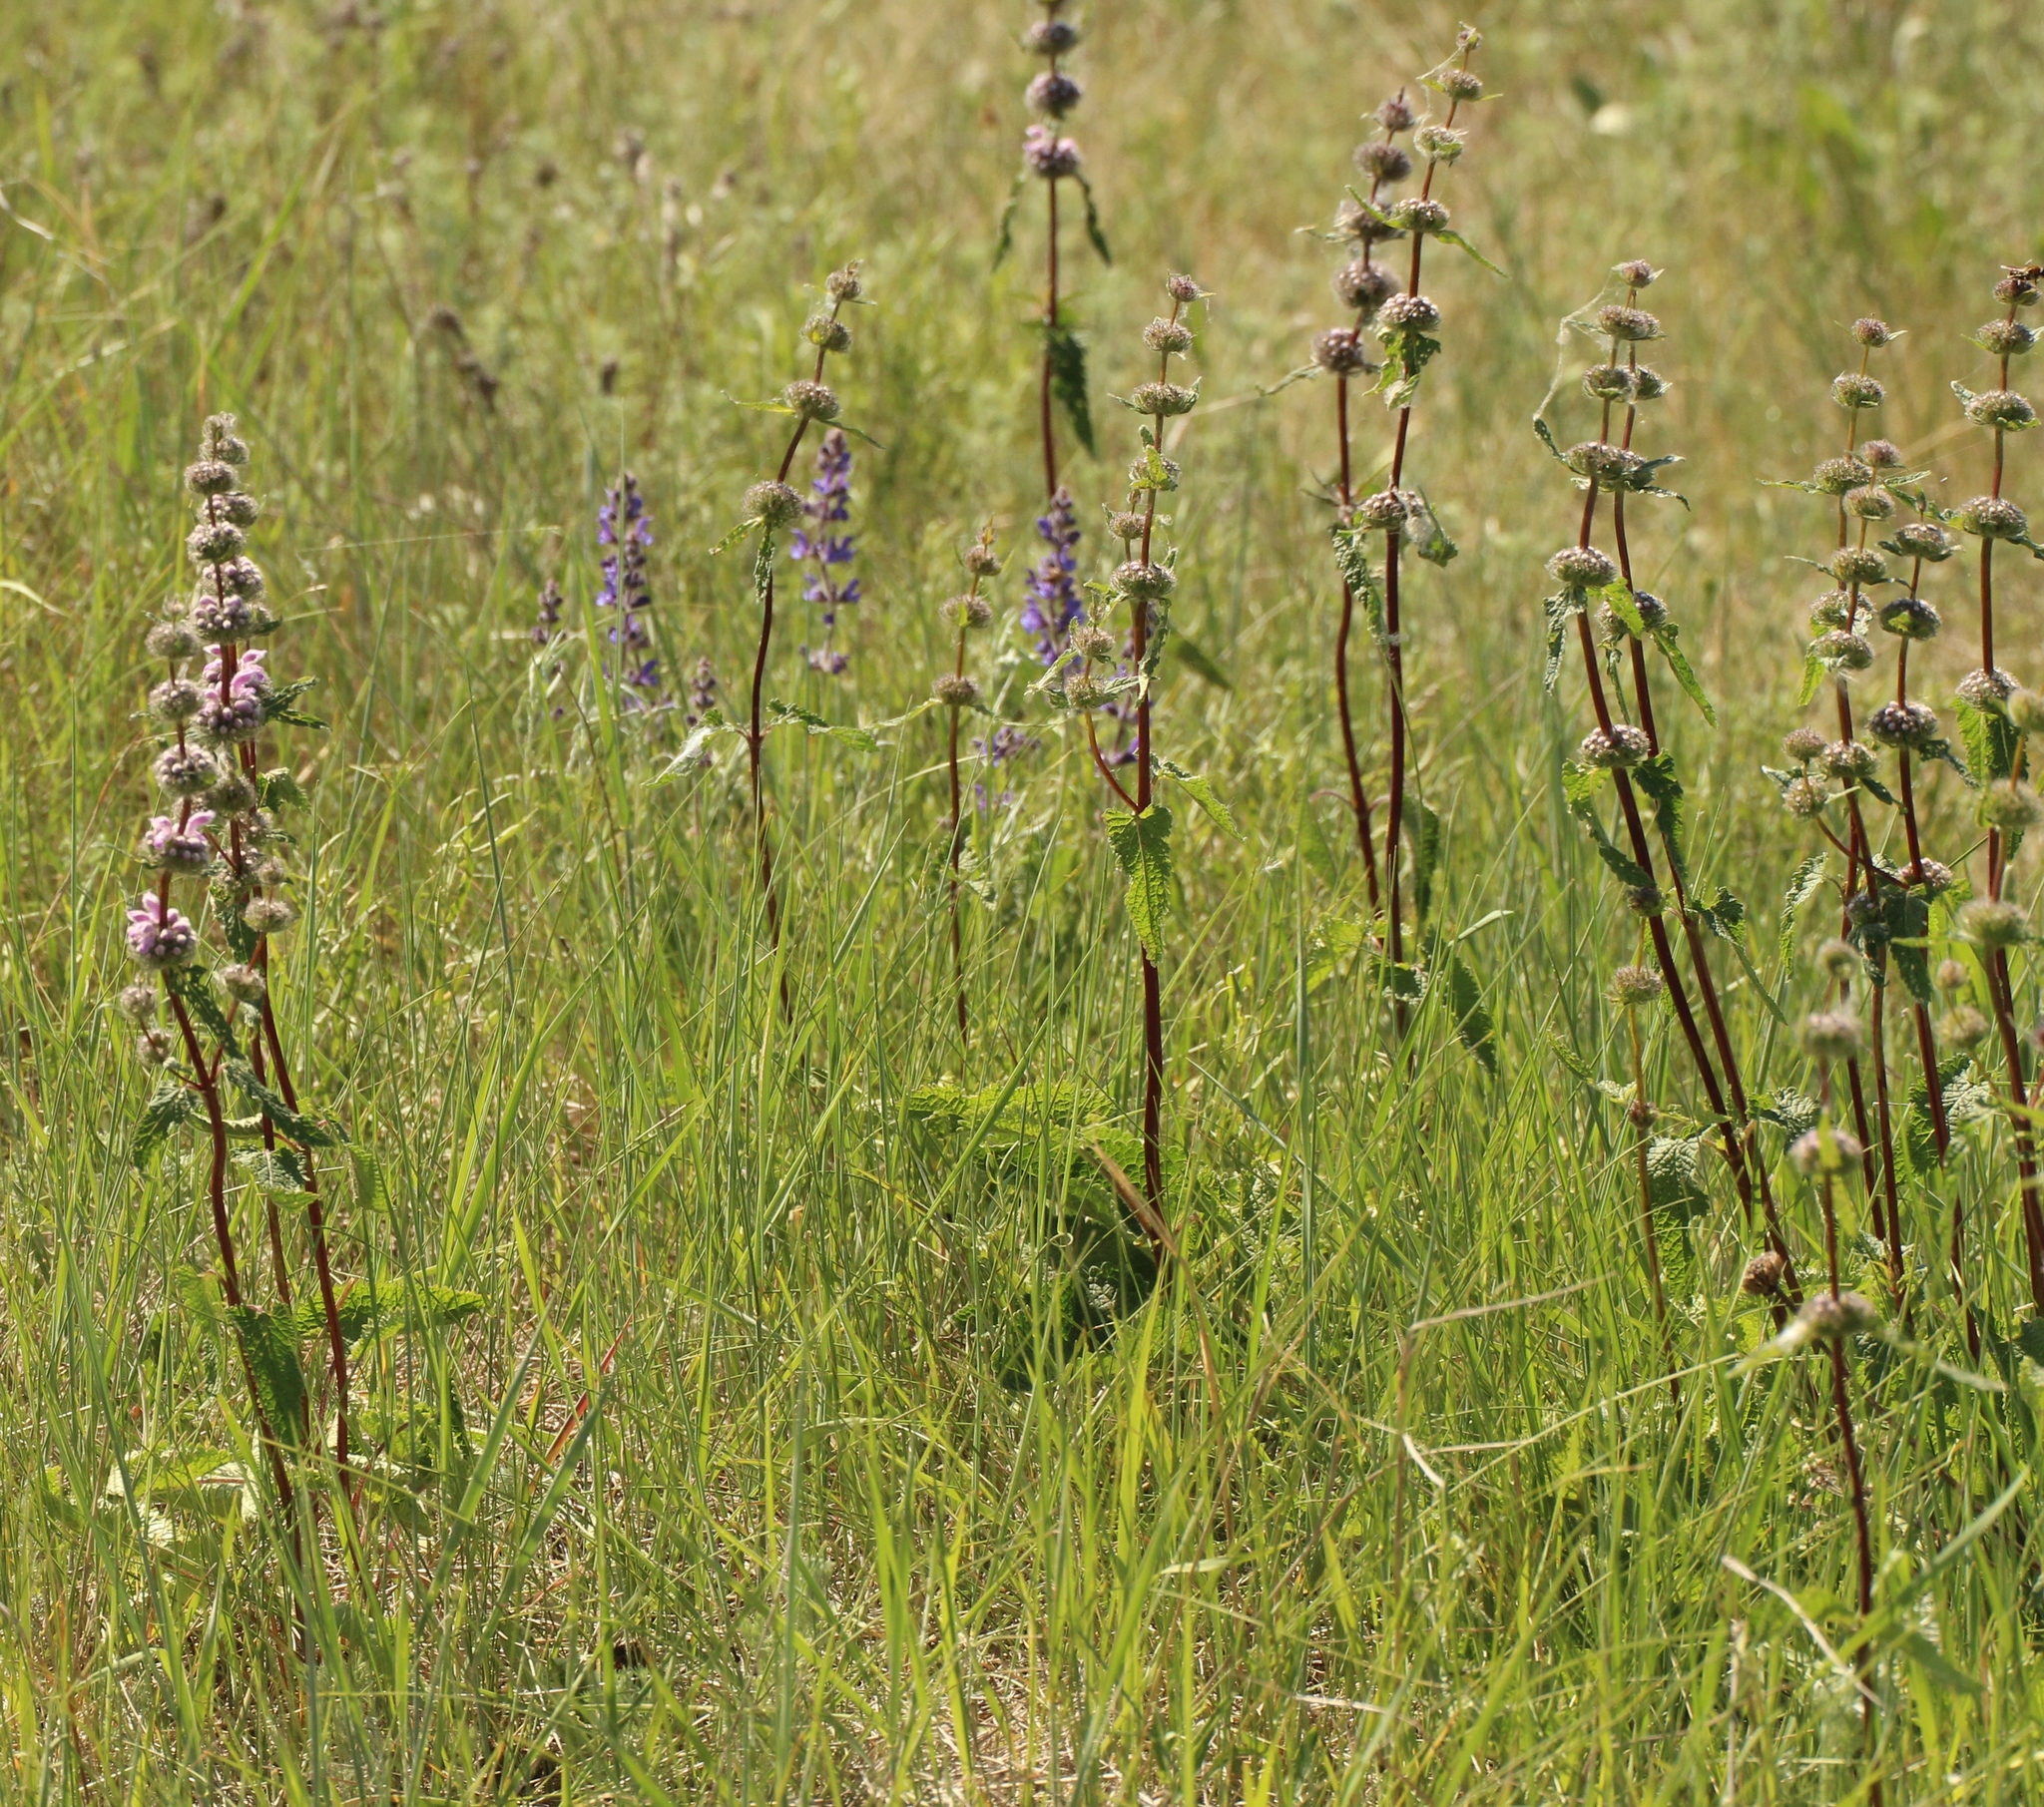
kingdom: Plantae
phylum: Tracheophyta
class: Magnoliopsida
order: Lamiales
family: Lamiaceae
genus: Phlomoides
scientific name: Phlomoides tuberosa
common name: Tuberous jerusalem sage
